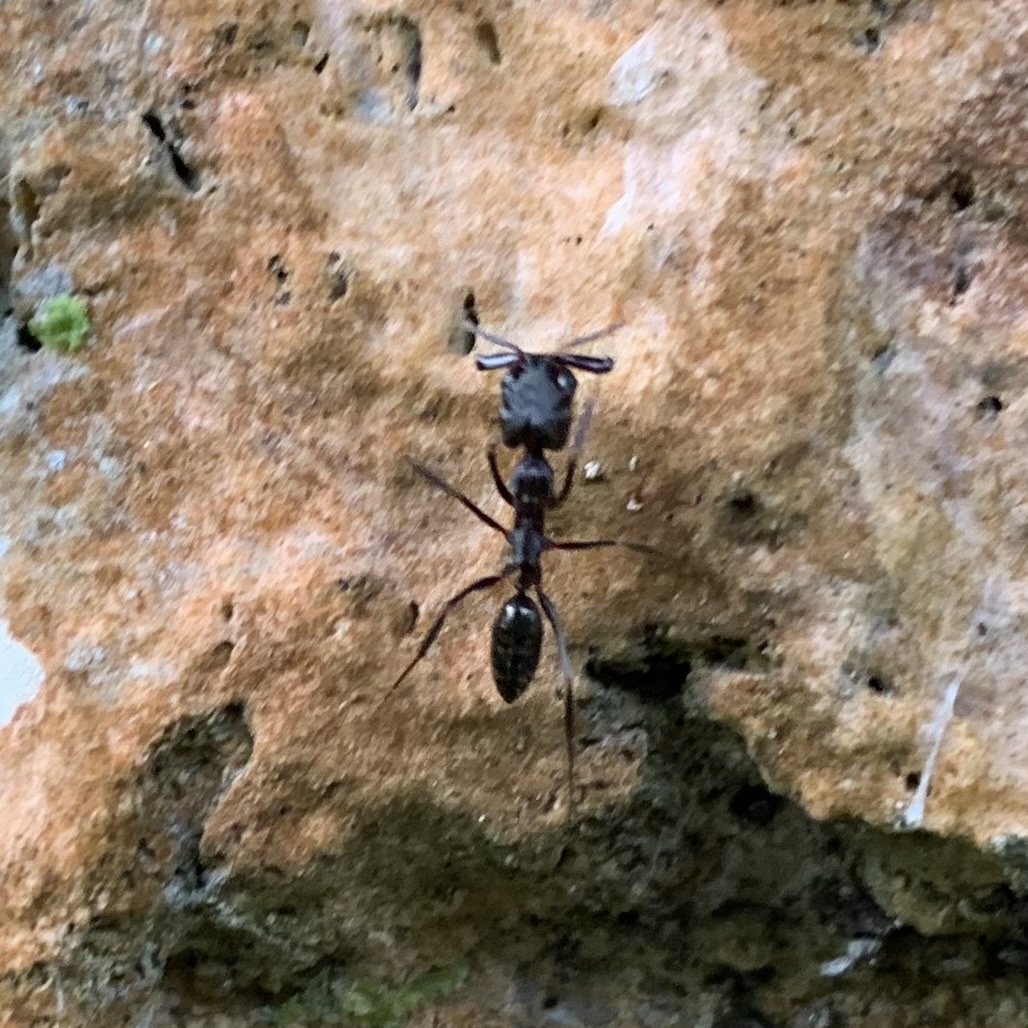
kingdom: Animalia
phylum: Arthropoda
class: Insecta
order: Hymenoptera
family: Formicidae
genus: Odontomachus
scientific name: Odontomachus simillimus
